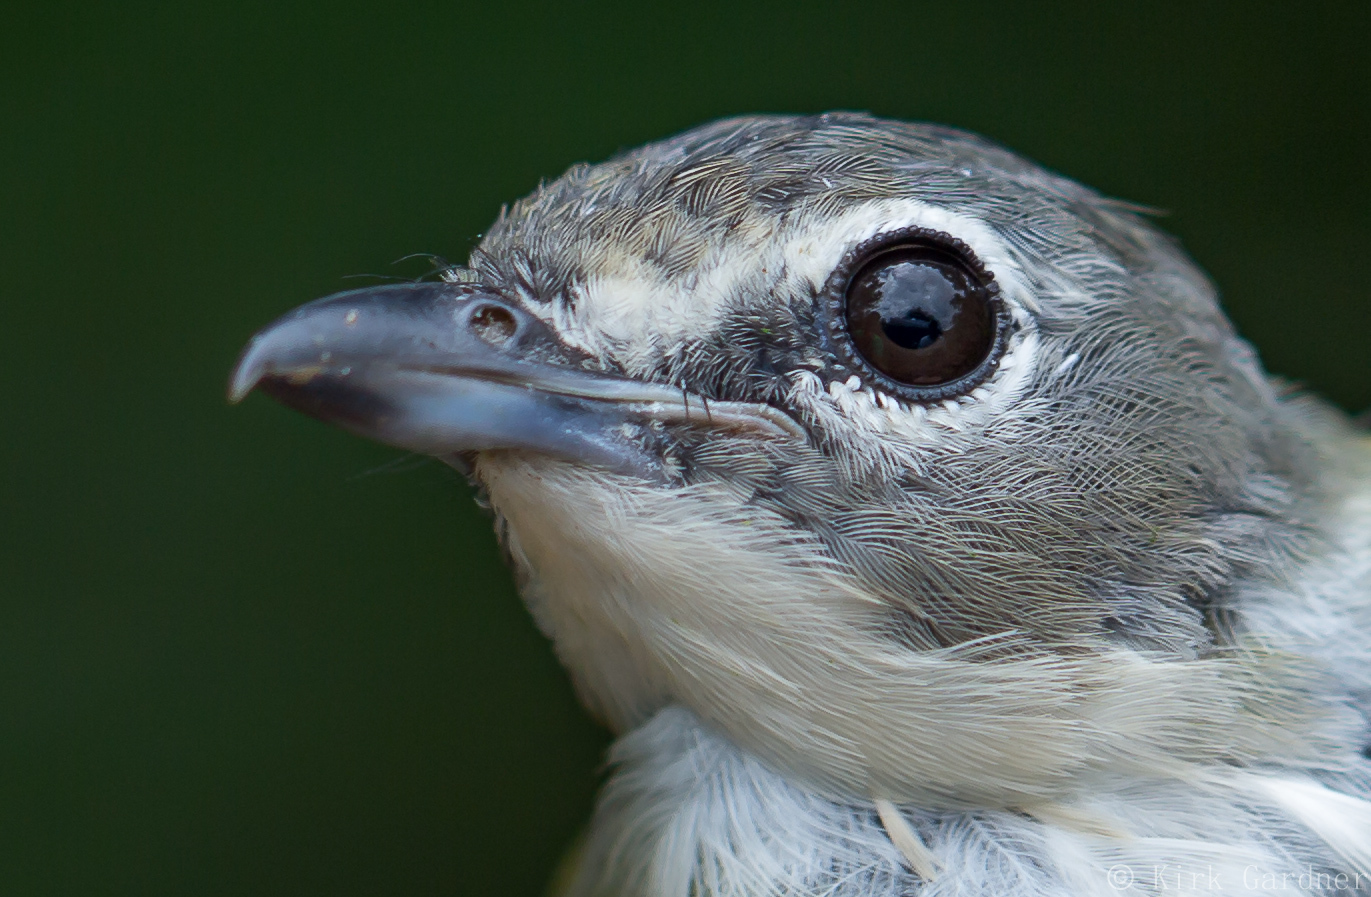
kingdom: Animalia
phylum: Chordata
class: Aves
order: Passeriformes
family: Vireonidae
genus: Vireo
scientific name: Vireo solitarius
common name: Blue-headed vireo
